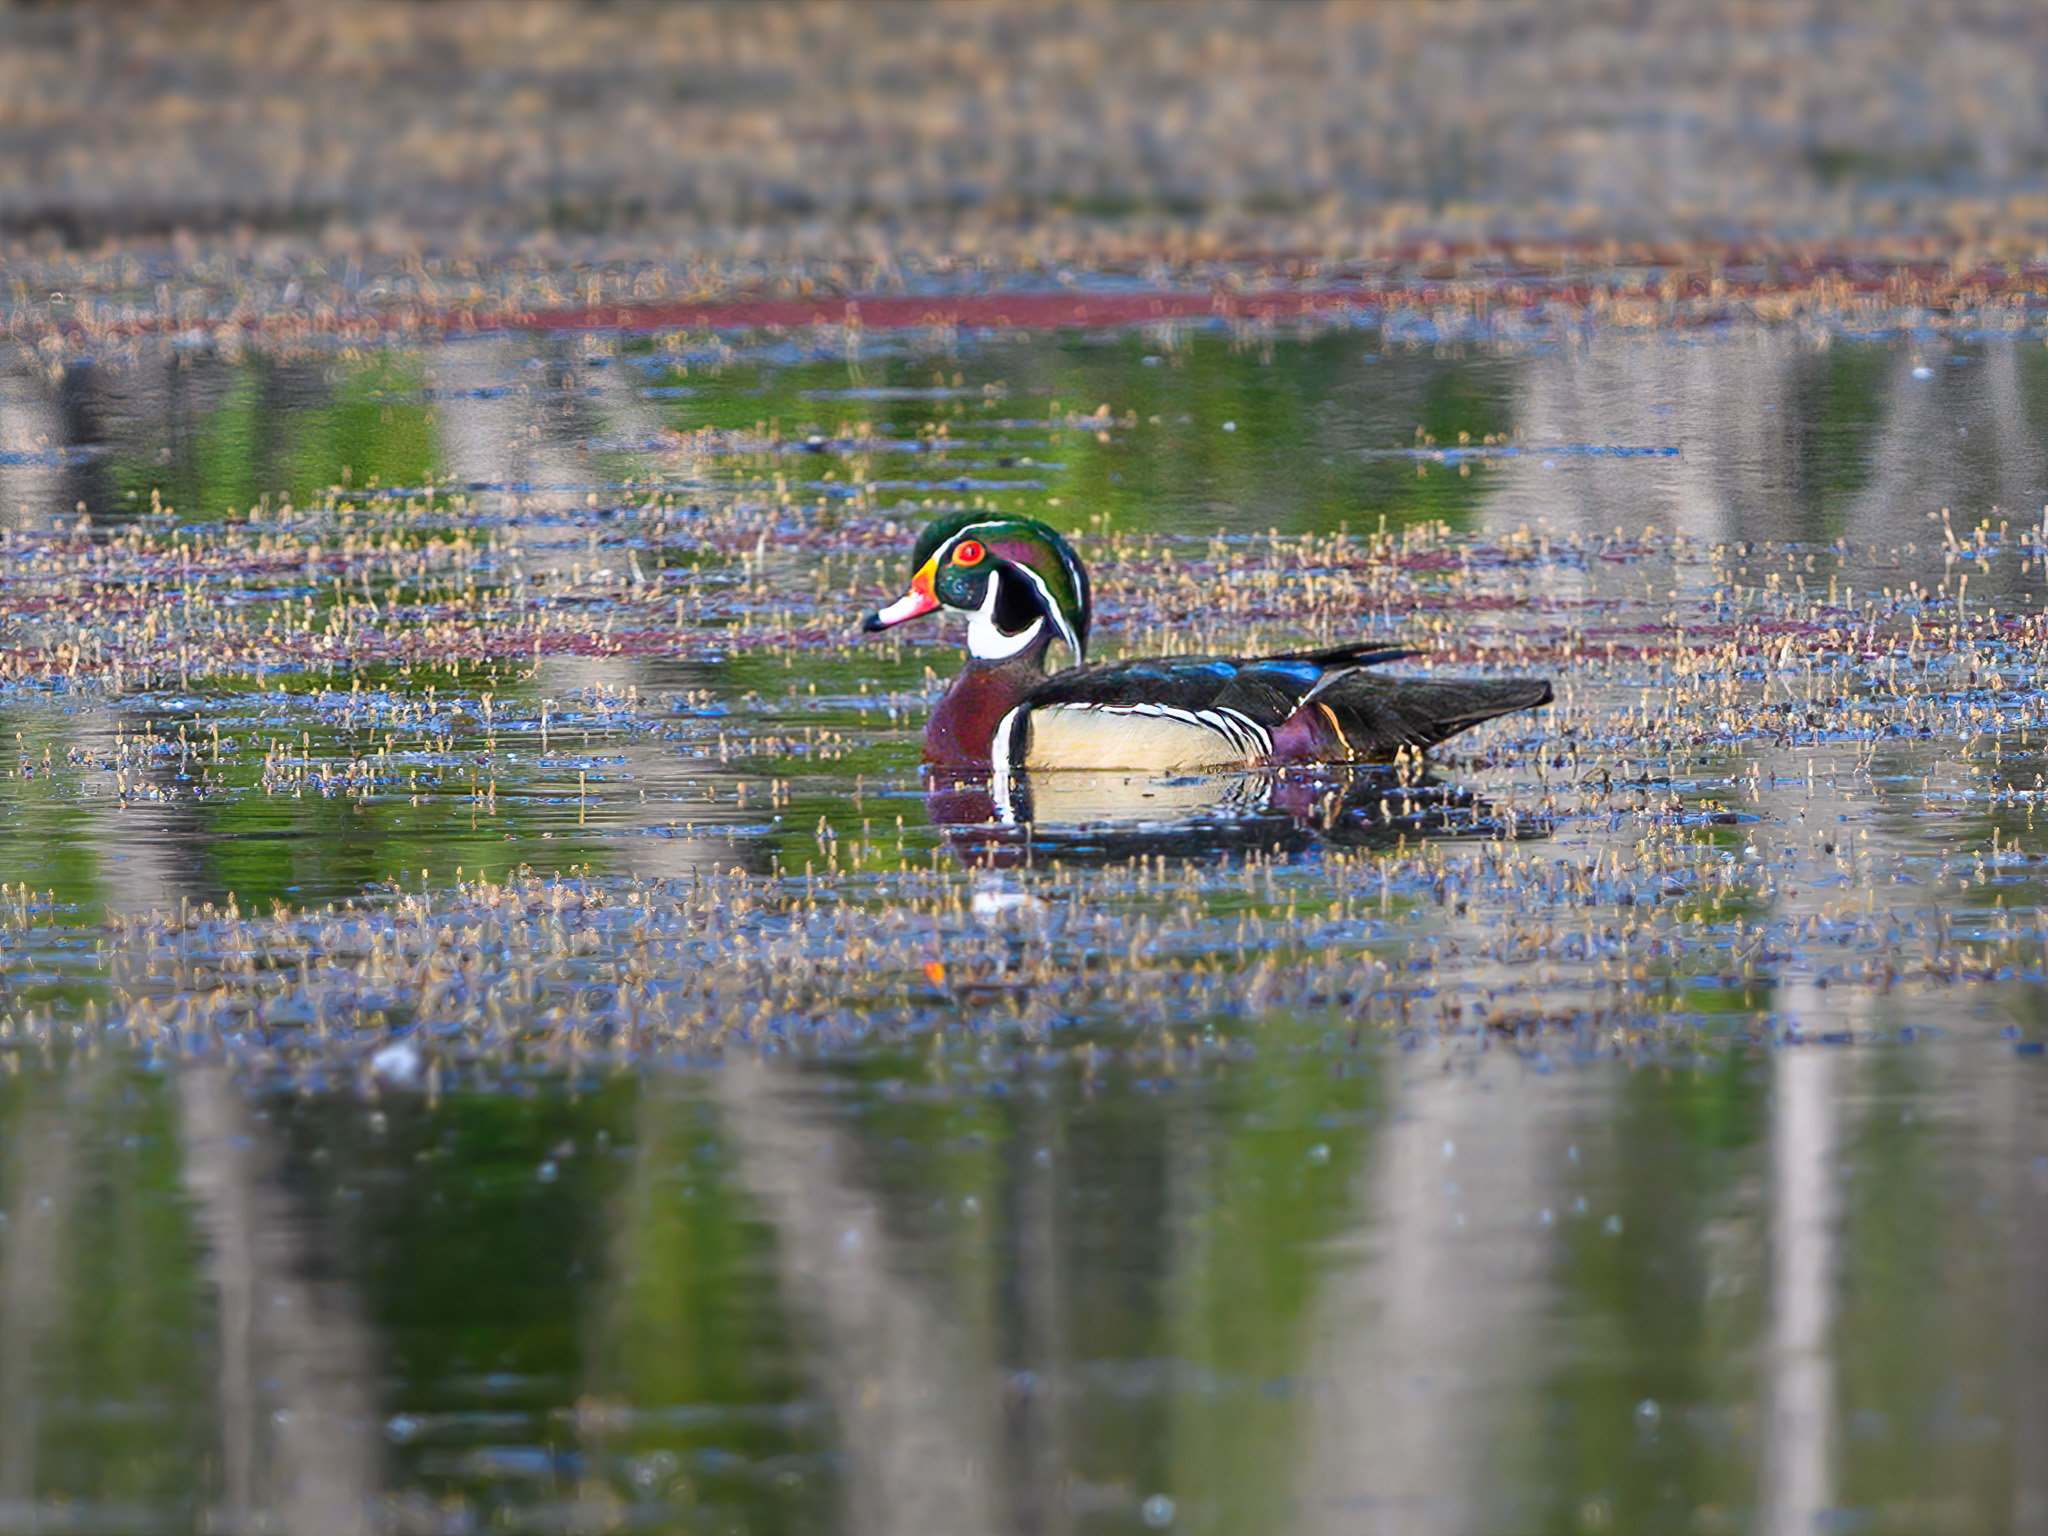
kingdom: Animalia
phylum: Chordata
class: Aves
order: Anseriformes
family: Anatidae
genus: Aix
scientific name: Aix sponsa
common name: Wood duck
